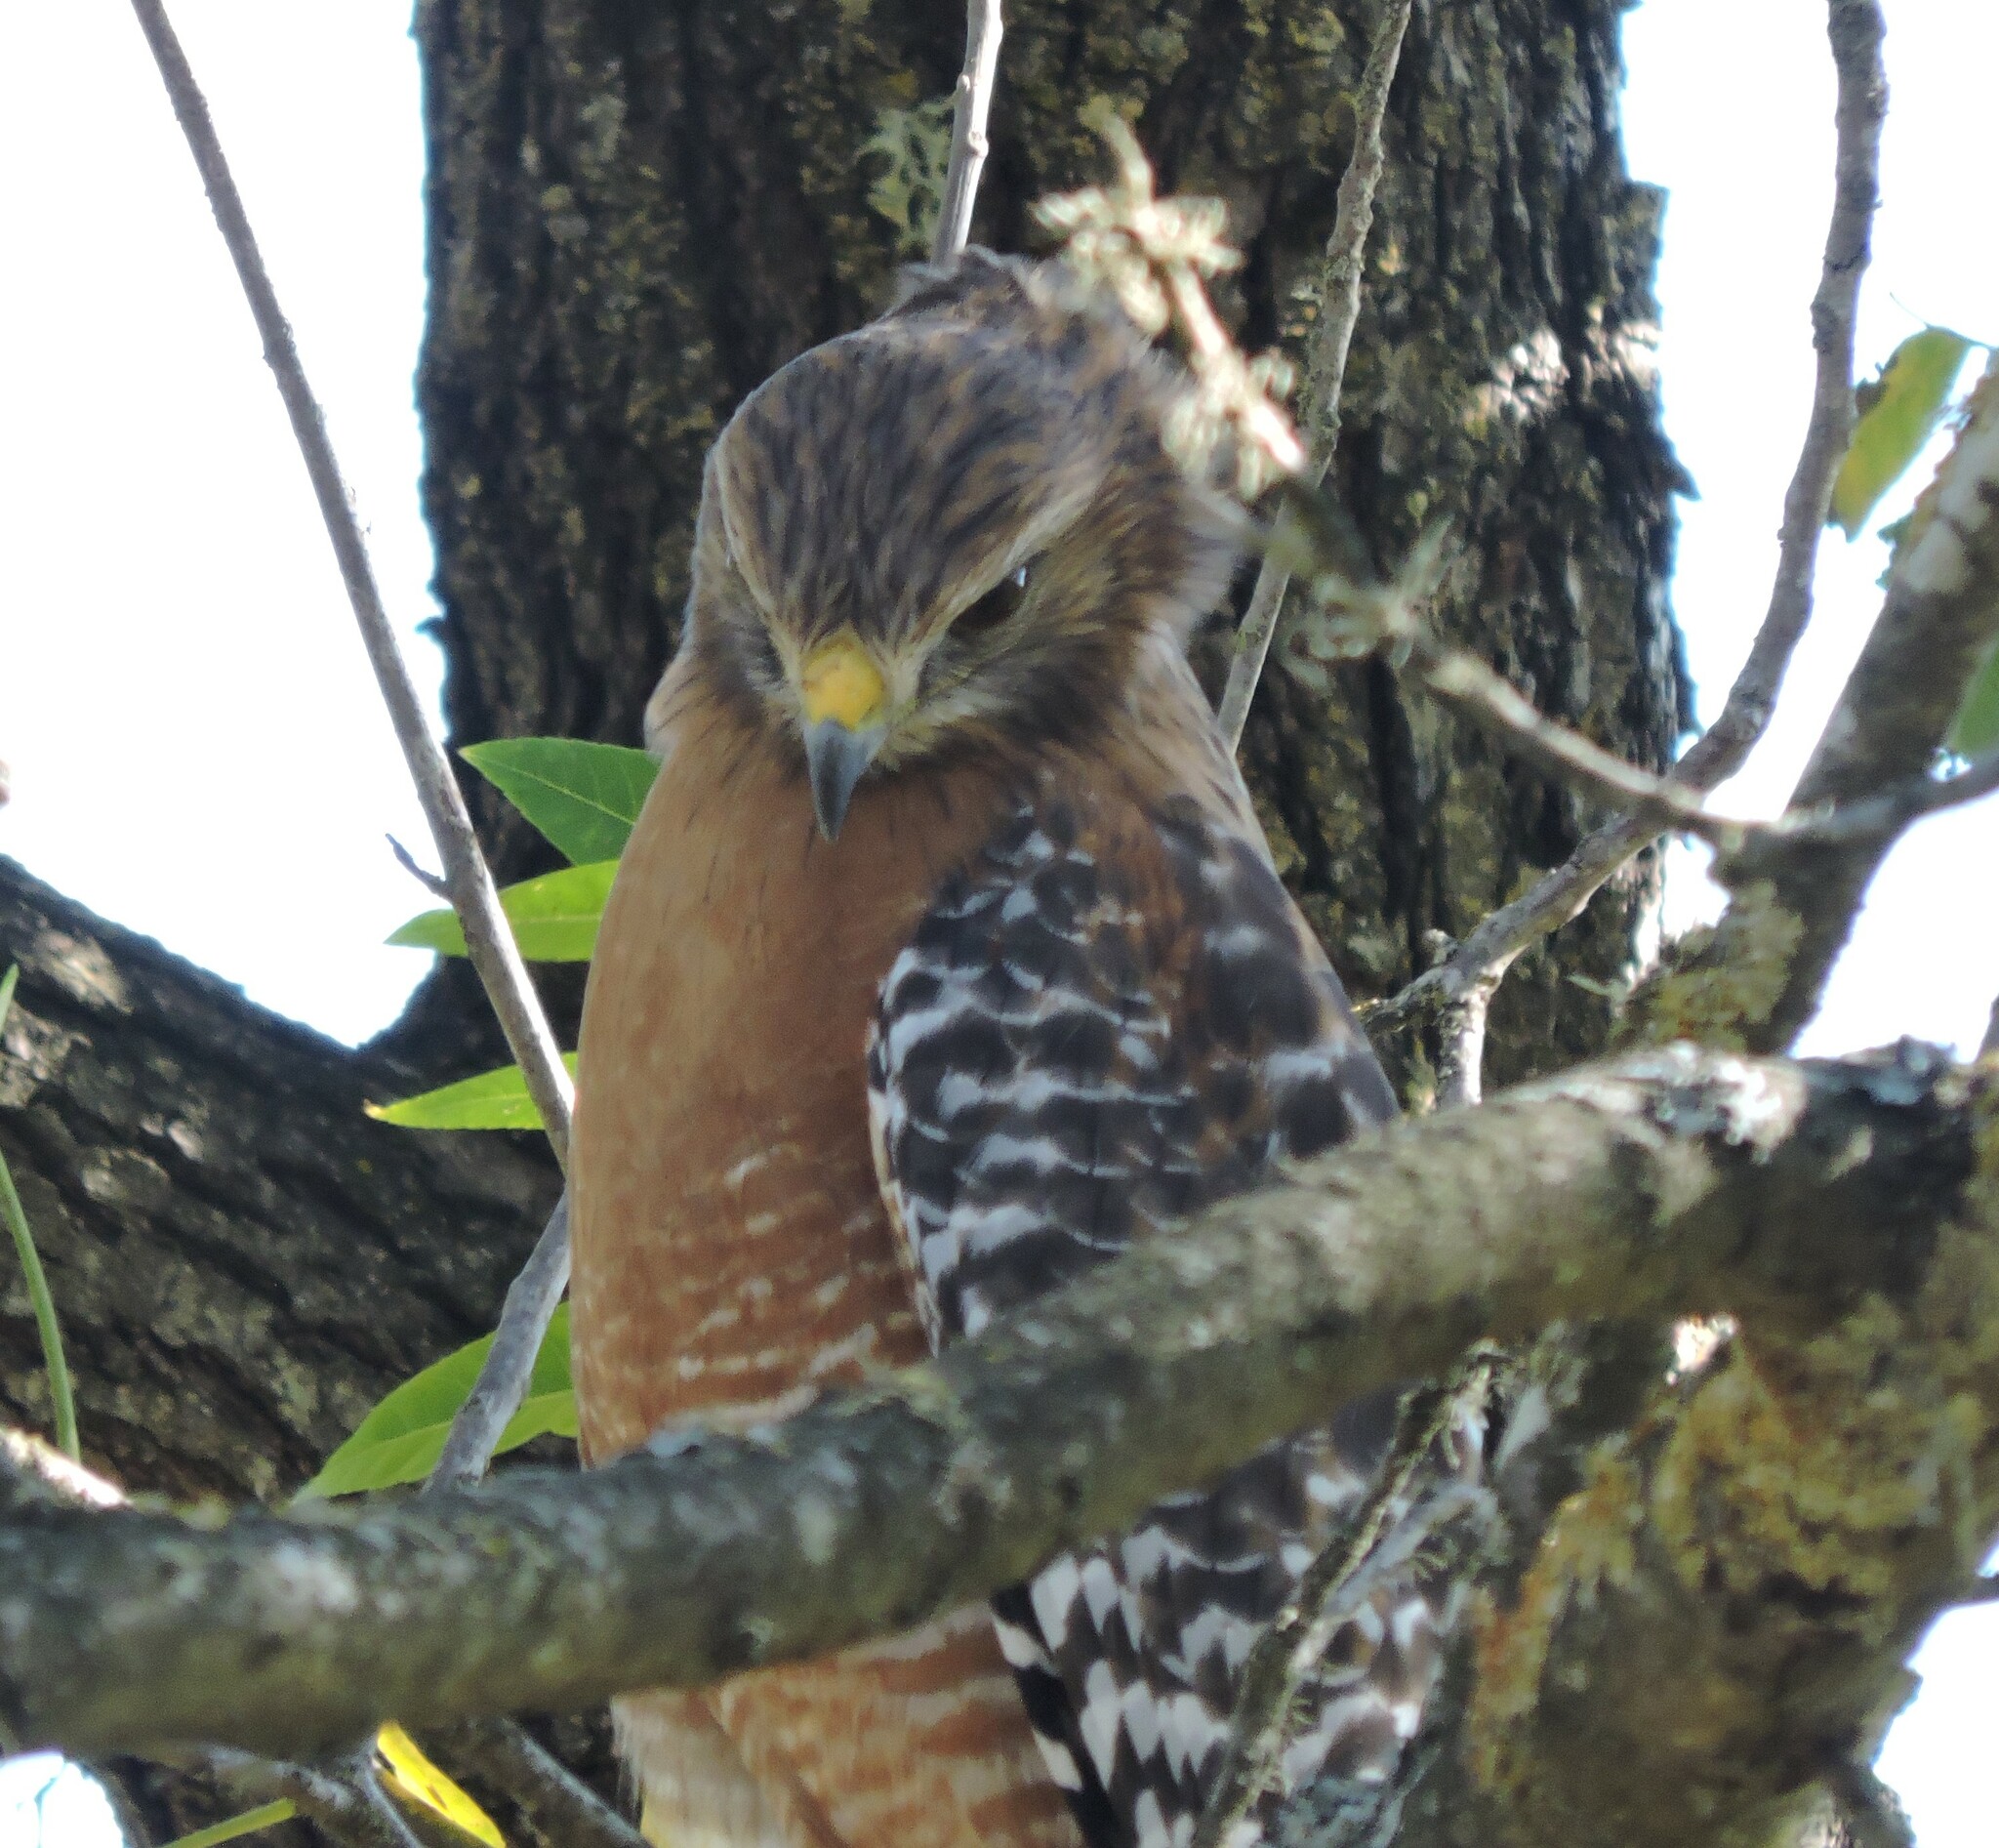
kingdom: Animalia
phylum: Chordata
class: Aves
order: Accipitriformes
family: Accipitridae
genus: Buteo
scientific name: Buteo lineatus
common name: Red-shouldered hawk
